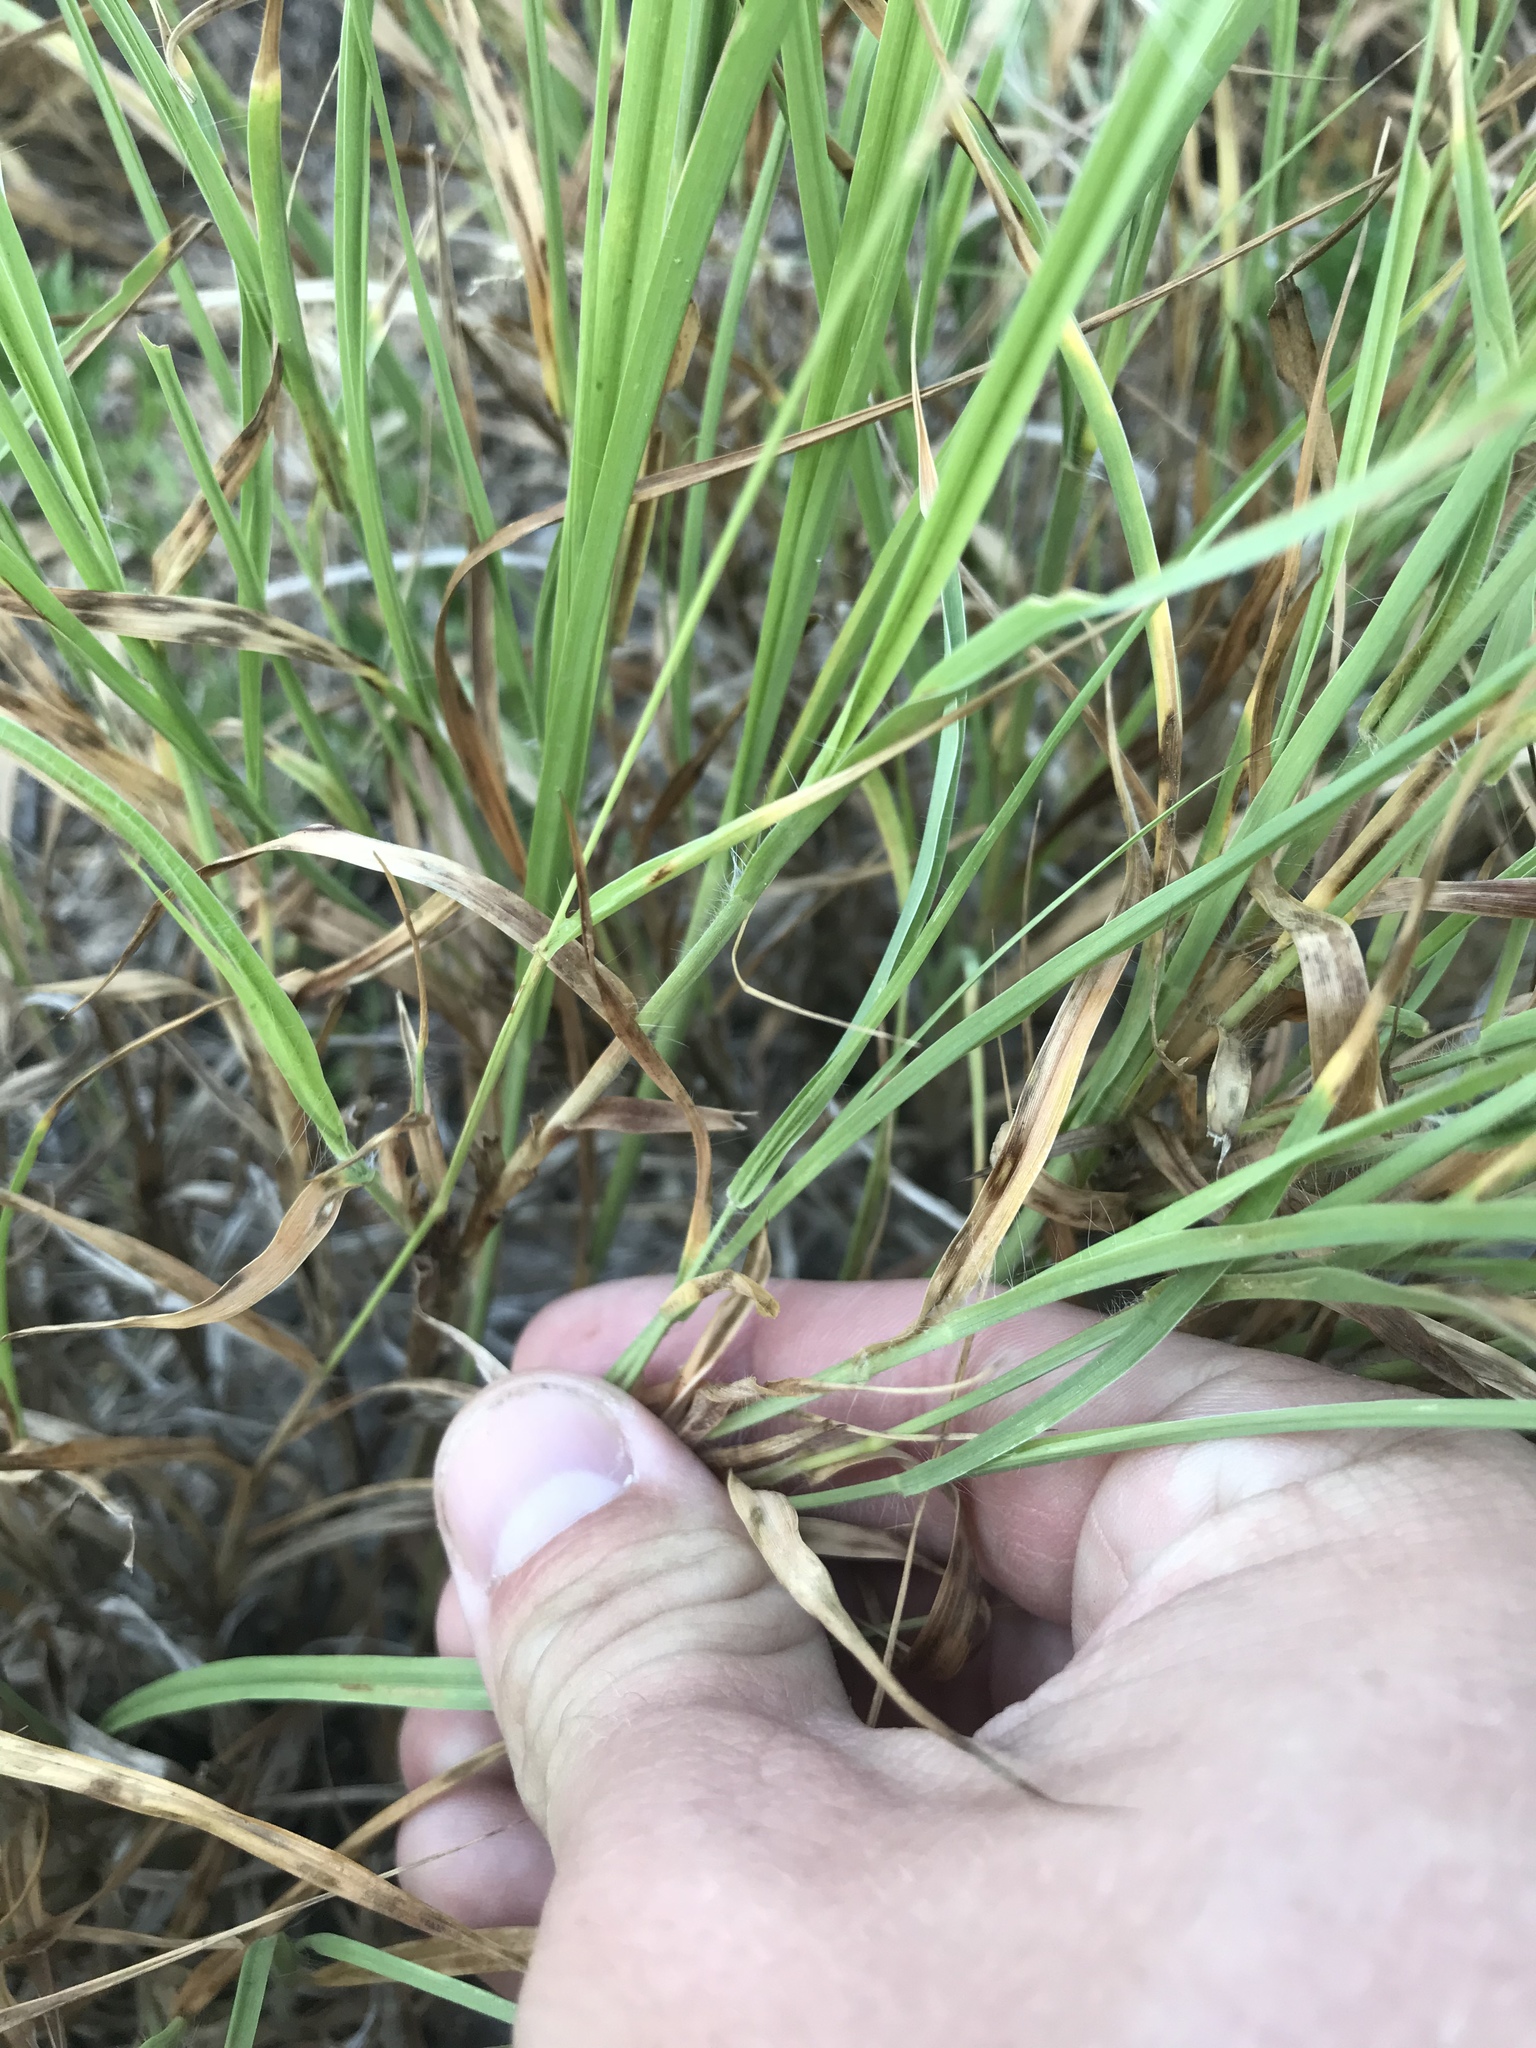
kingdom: Plantae
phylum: Tracheophyta
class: Liliopsida
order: Poales
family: Poaceae
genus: Cenchrus
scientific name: Cenchrus ciliaris
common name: Buffelgrass
